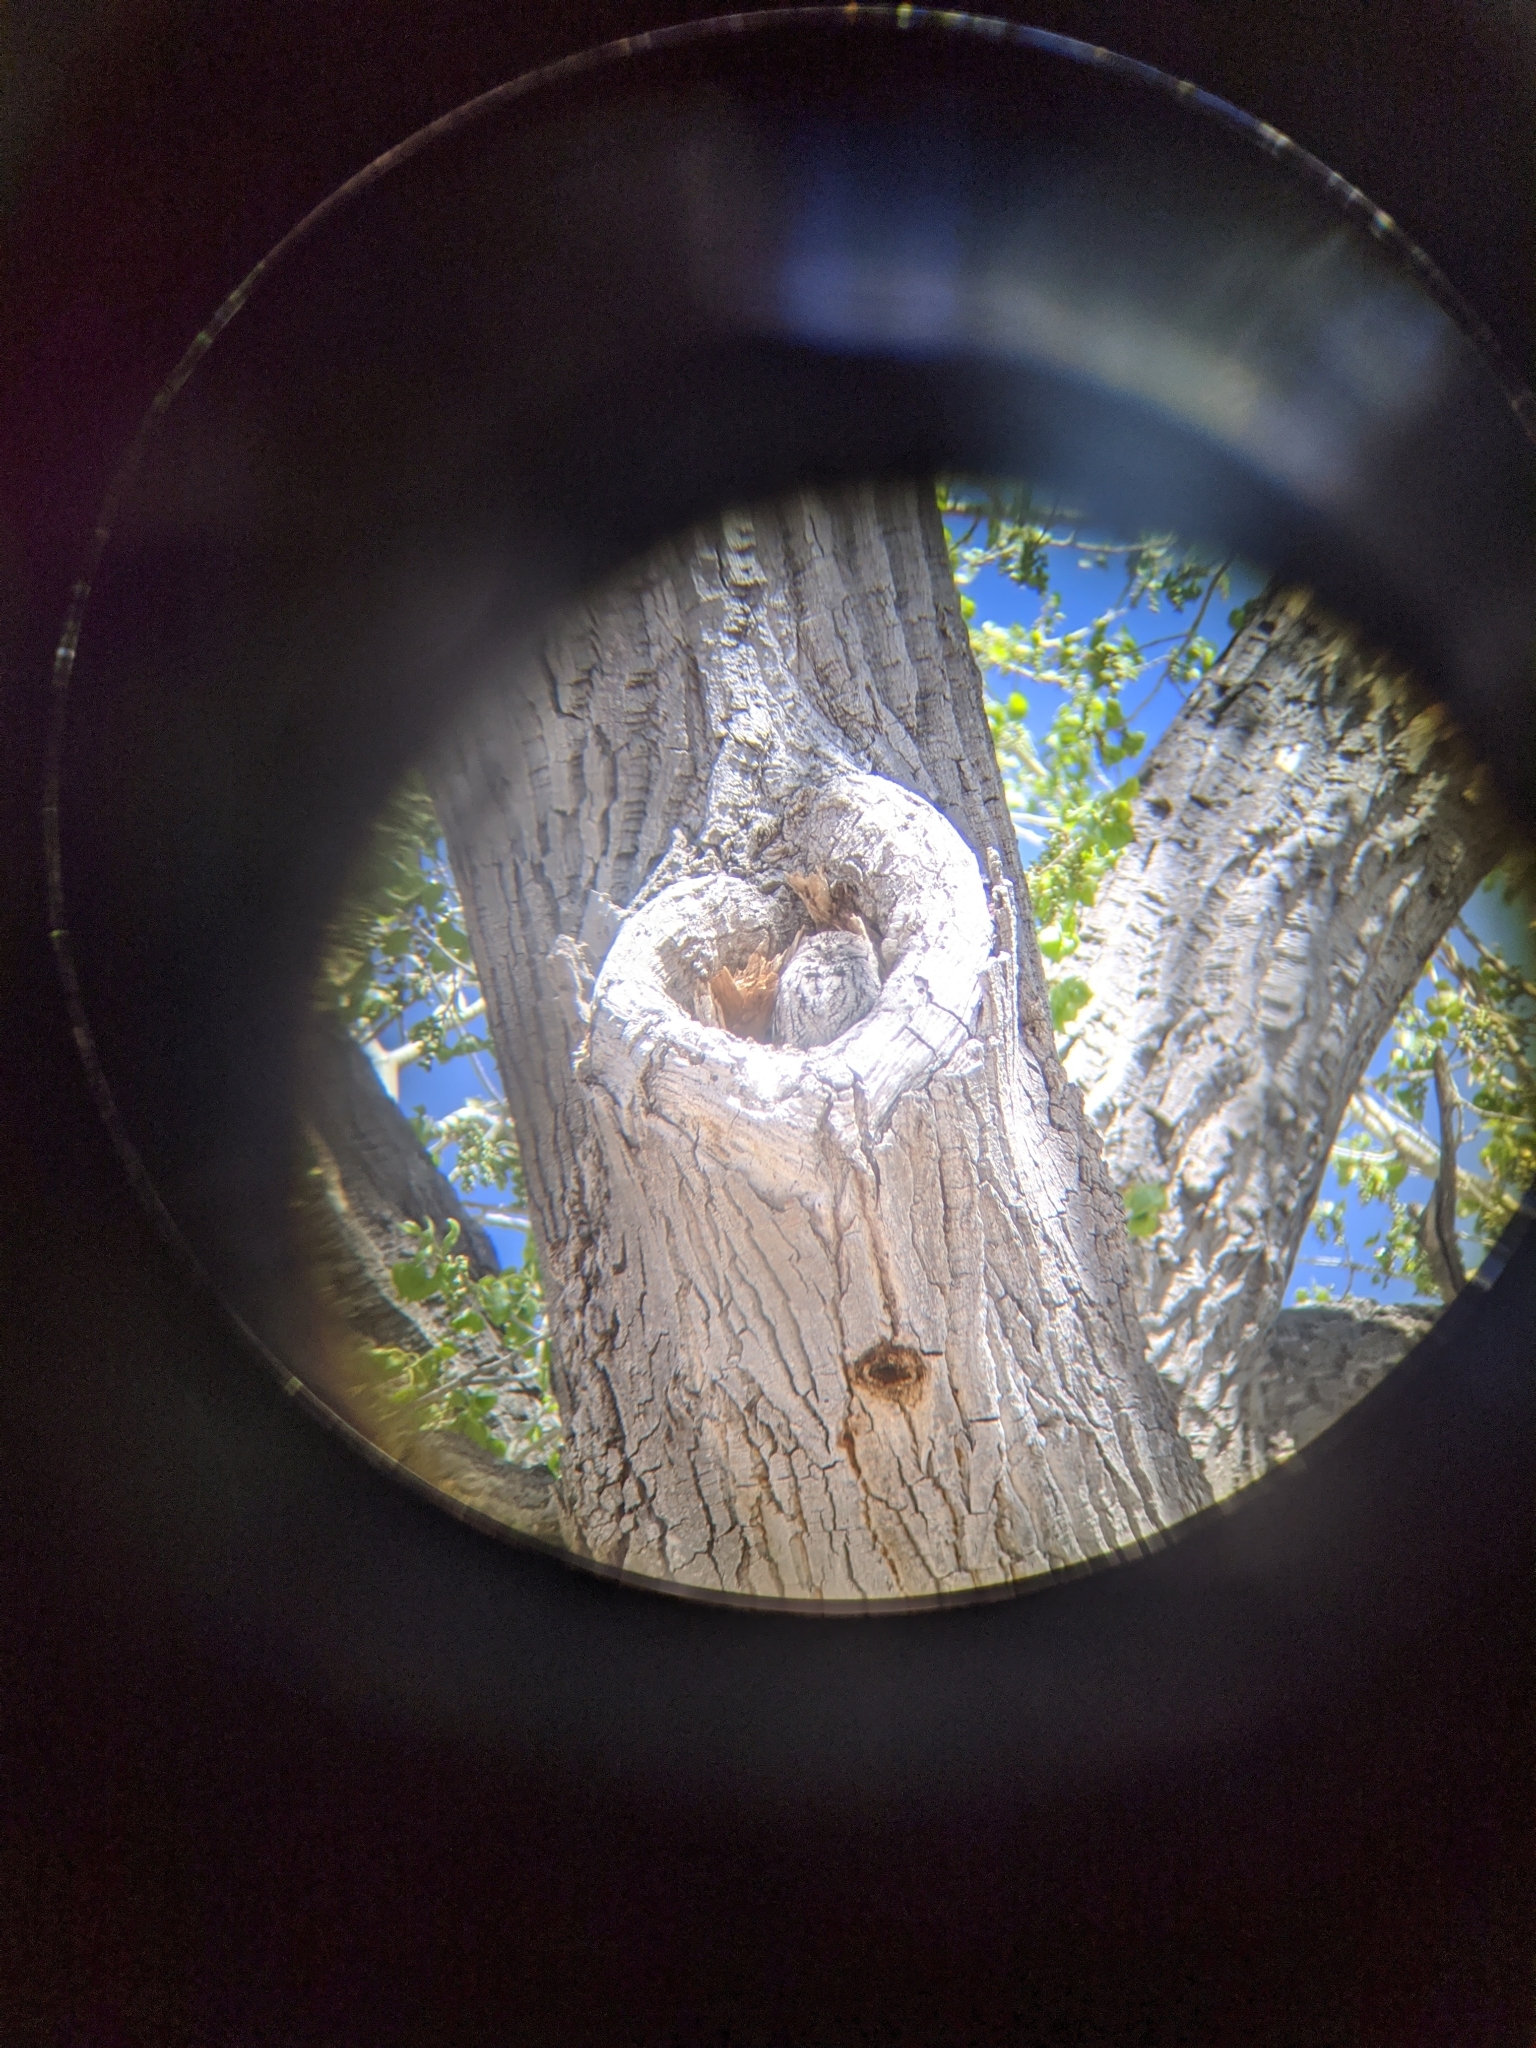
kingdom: Animalia
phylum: Chordata
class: Aves
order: Strigiformes
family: Strigidae
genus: Megascops
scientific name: Megascops kennicottii
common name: Western screech-owl
